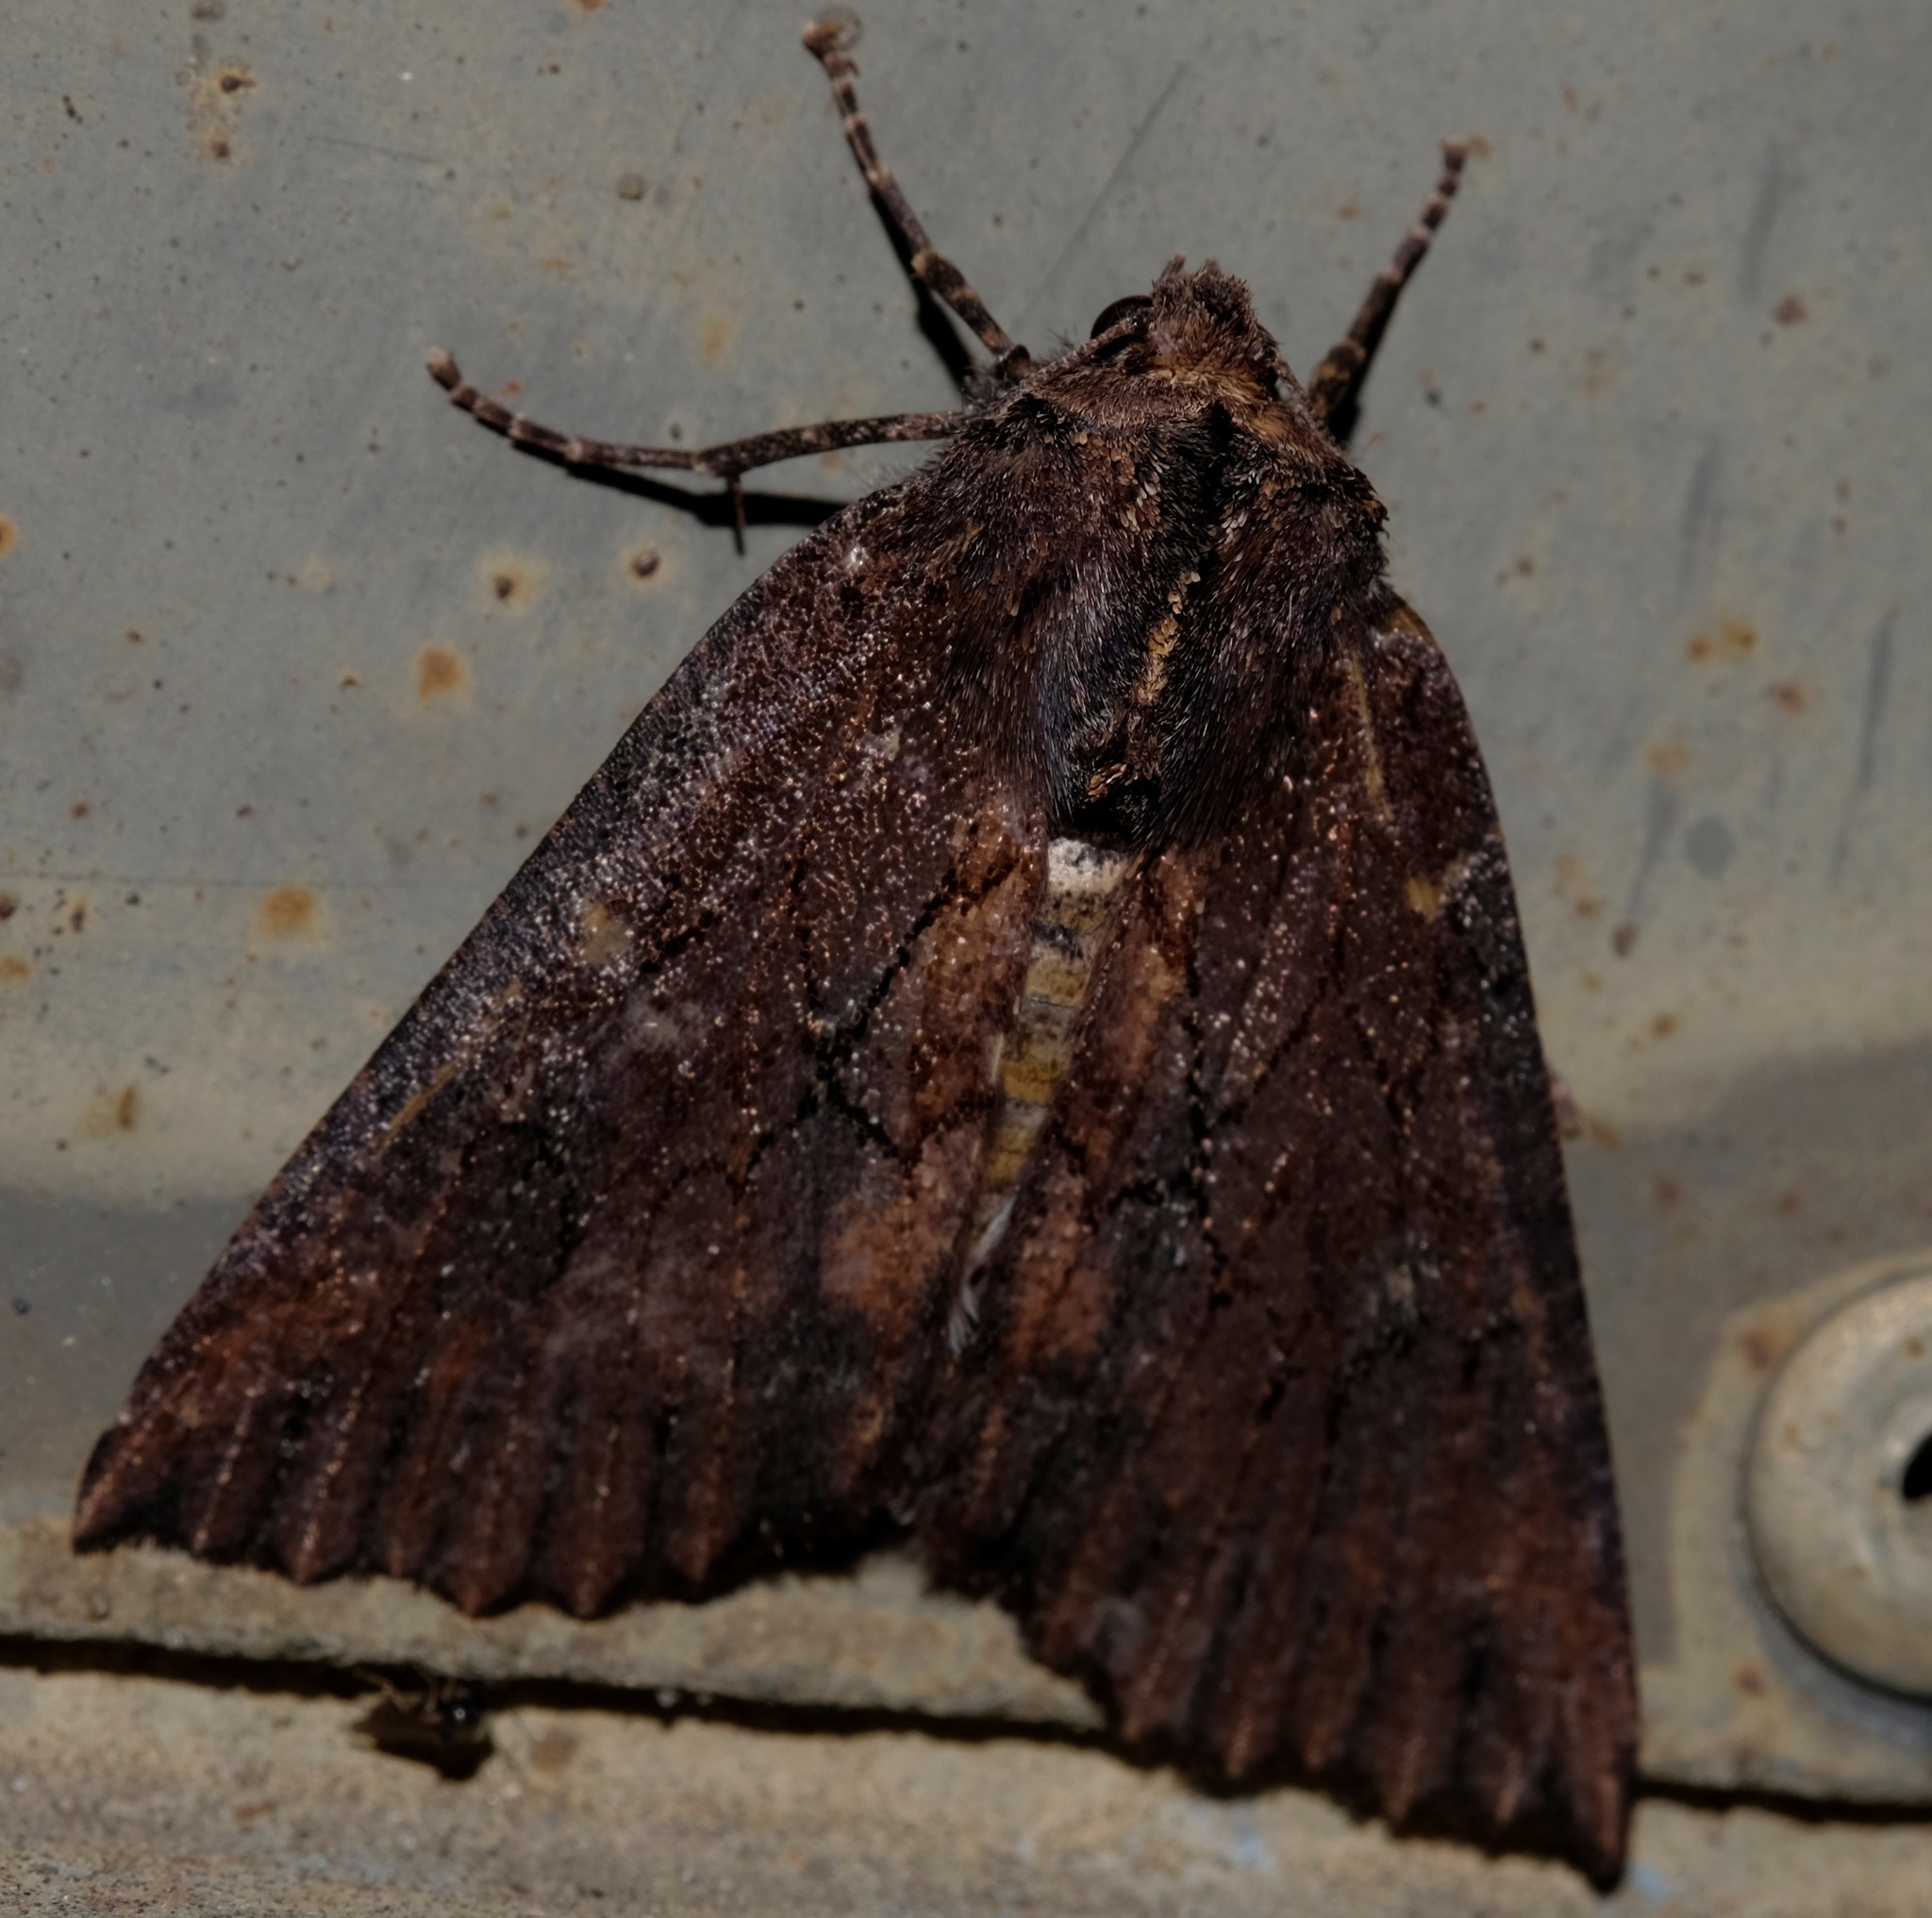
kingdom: Animalia
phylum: Arthropoda
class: Insecta
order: Lepidoptera
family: Geometridae
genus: Nisista
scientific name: Nisista serrata
